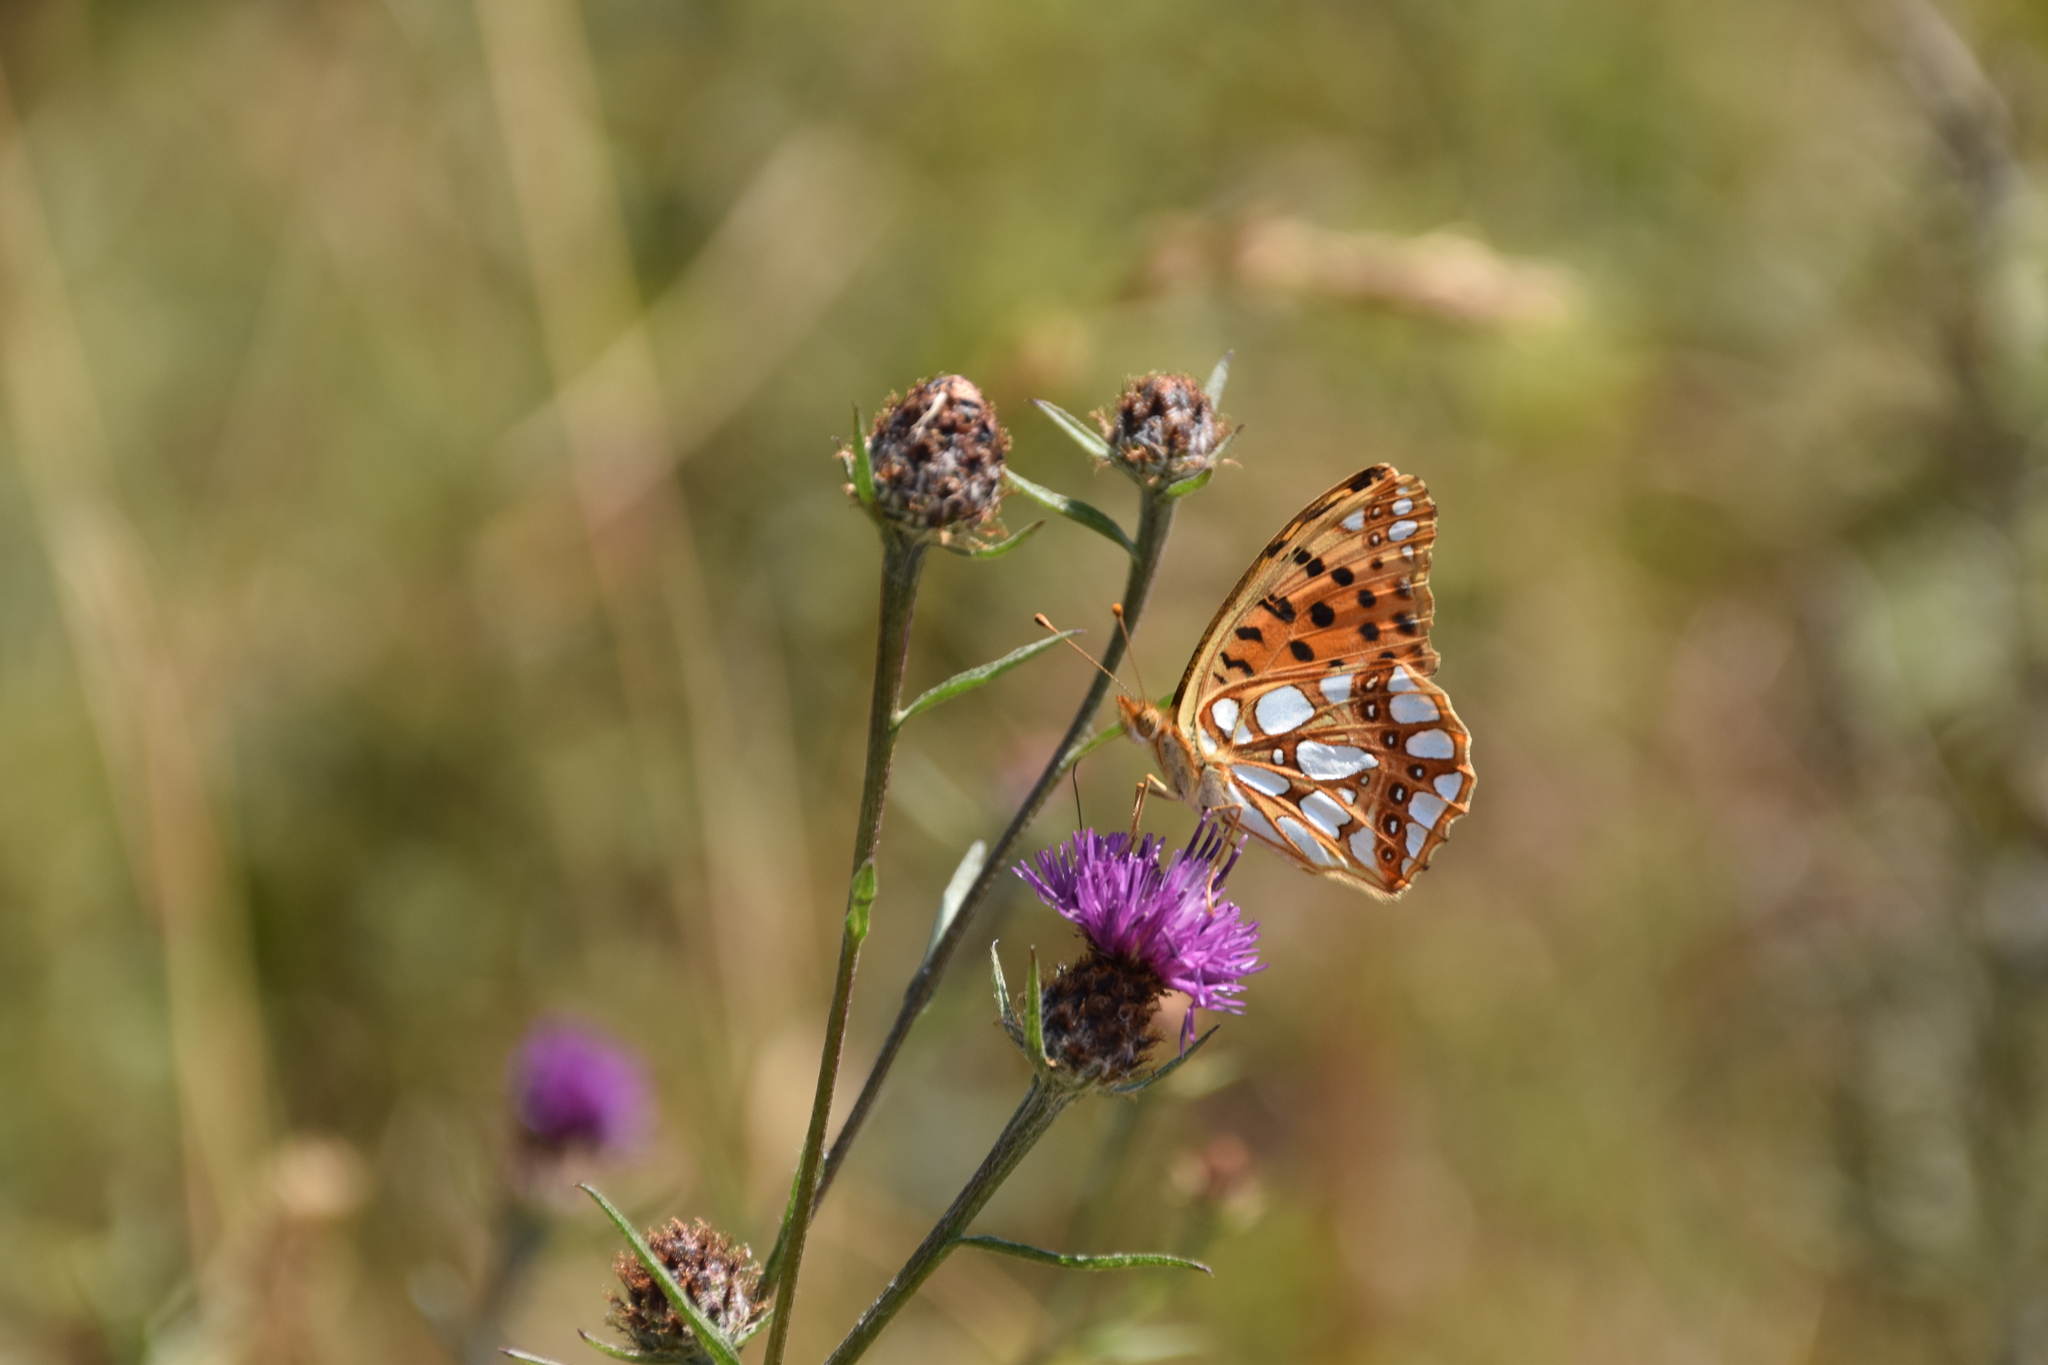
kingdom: Animalia
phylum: Arthropoda
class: Insecta
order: Lepidoptera
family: Nymphalidae
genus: Issoria
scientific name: Issoria lathonia
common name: Queen of spain fritillary
